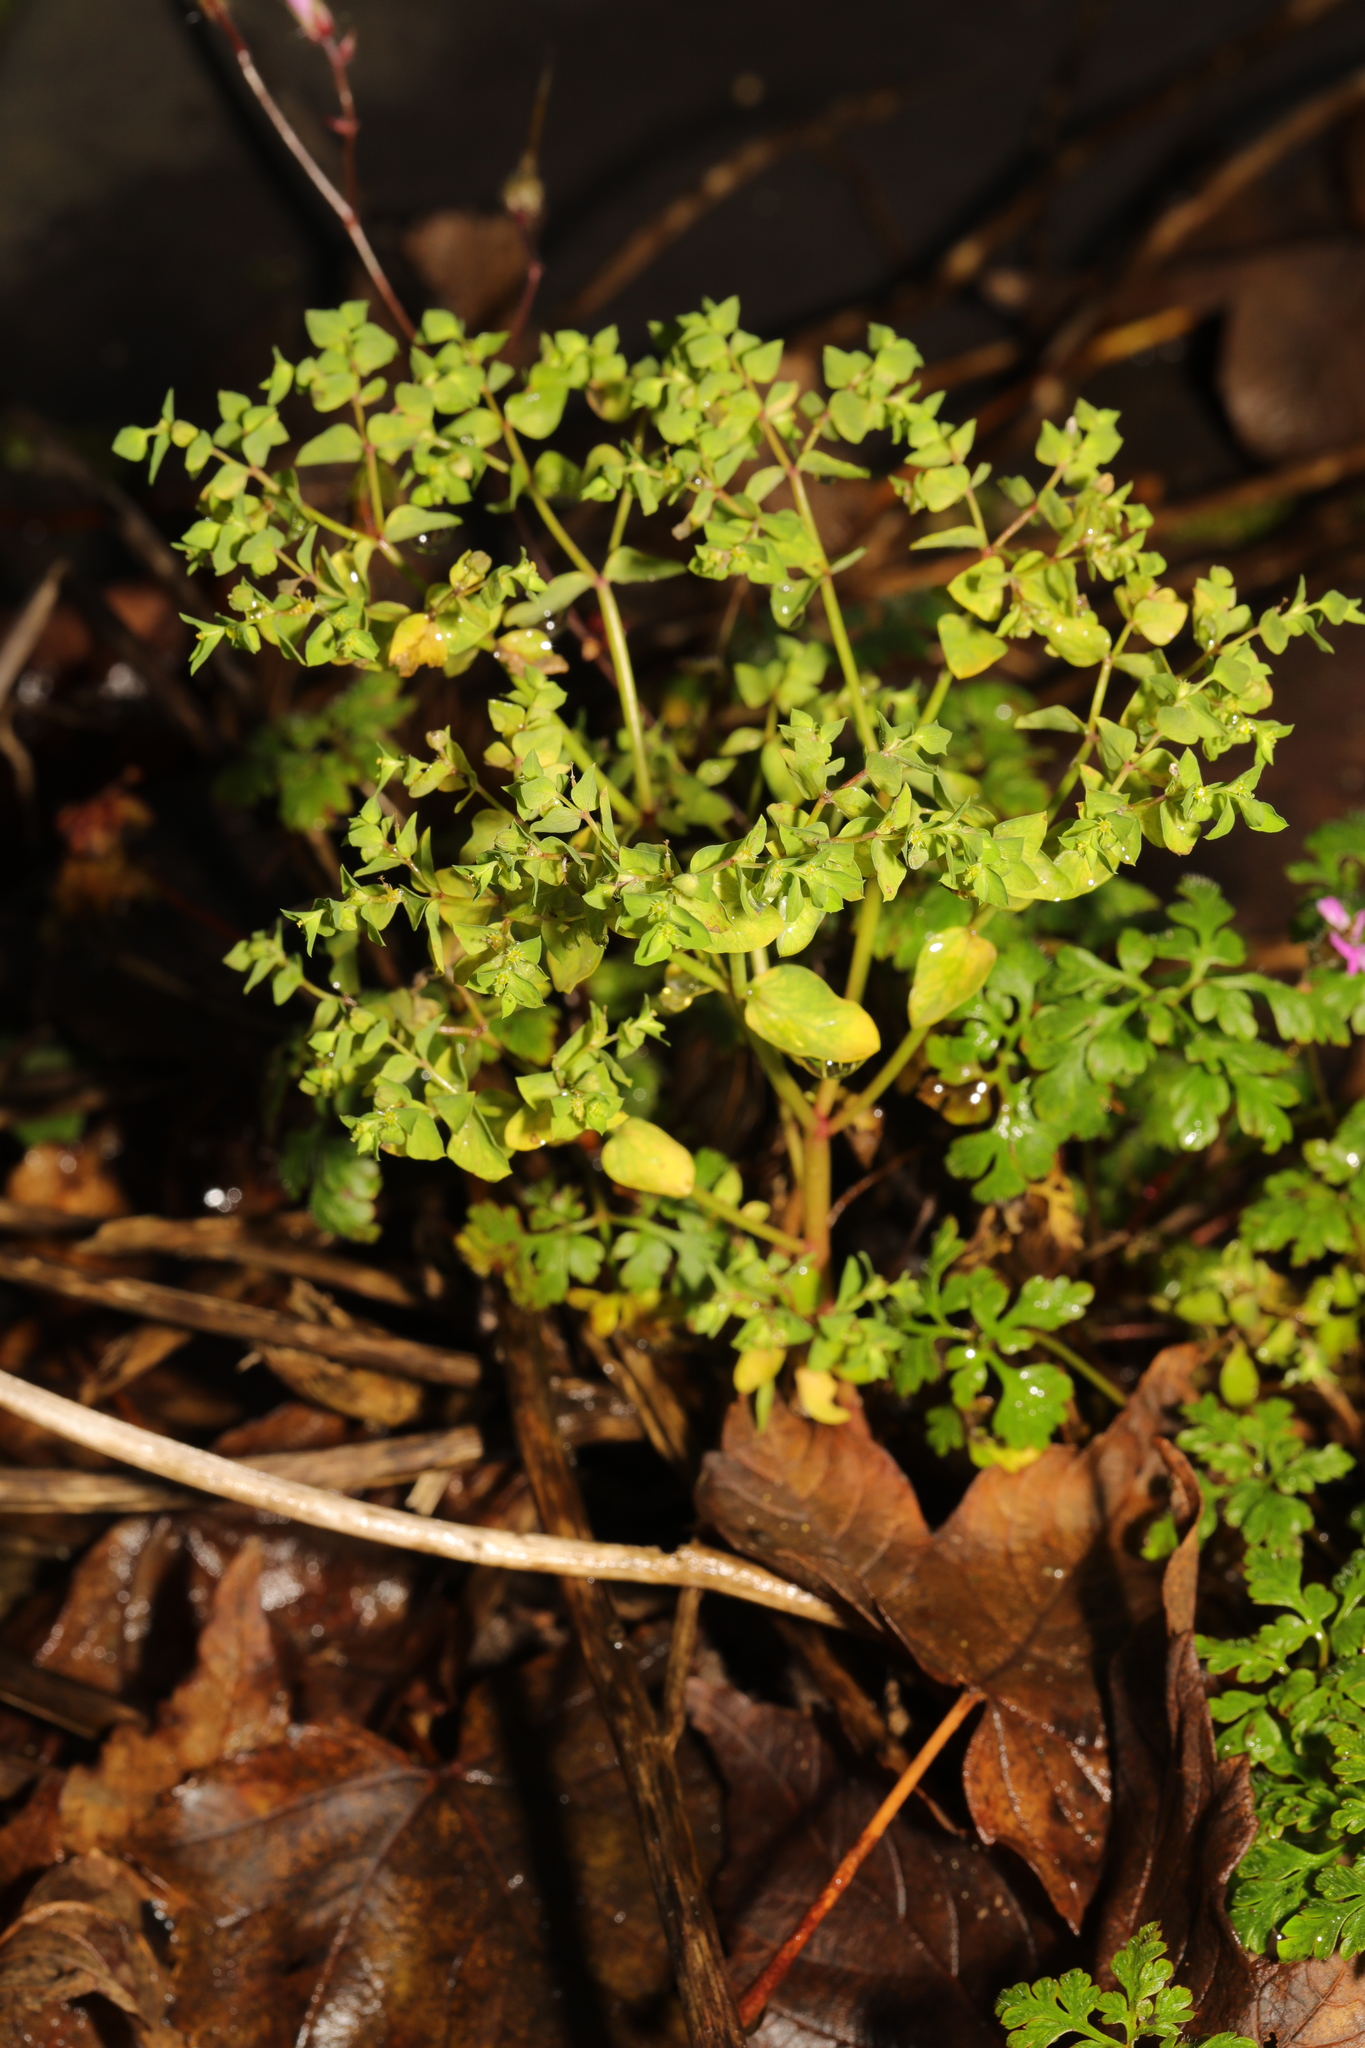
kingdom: Plantae
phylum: Tracheophyta
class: Magnoliopsida
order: Malpighiales
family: Euphorbiaceae
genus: Euphorbia
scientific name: Euphorbia peplus
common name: Petty spurge
